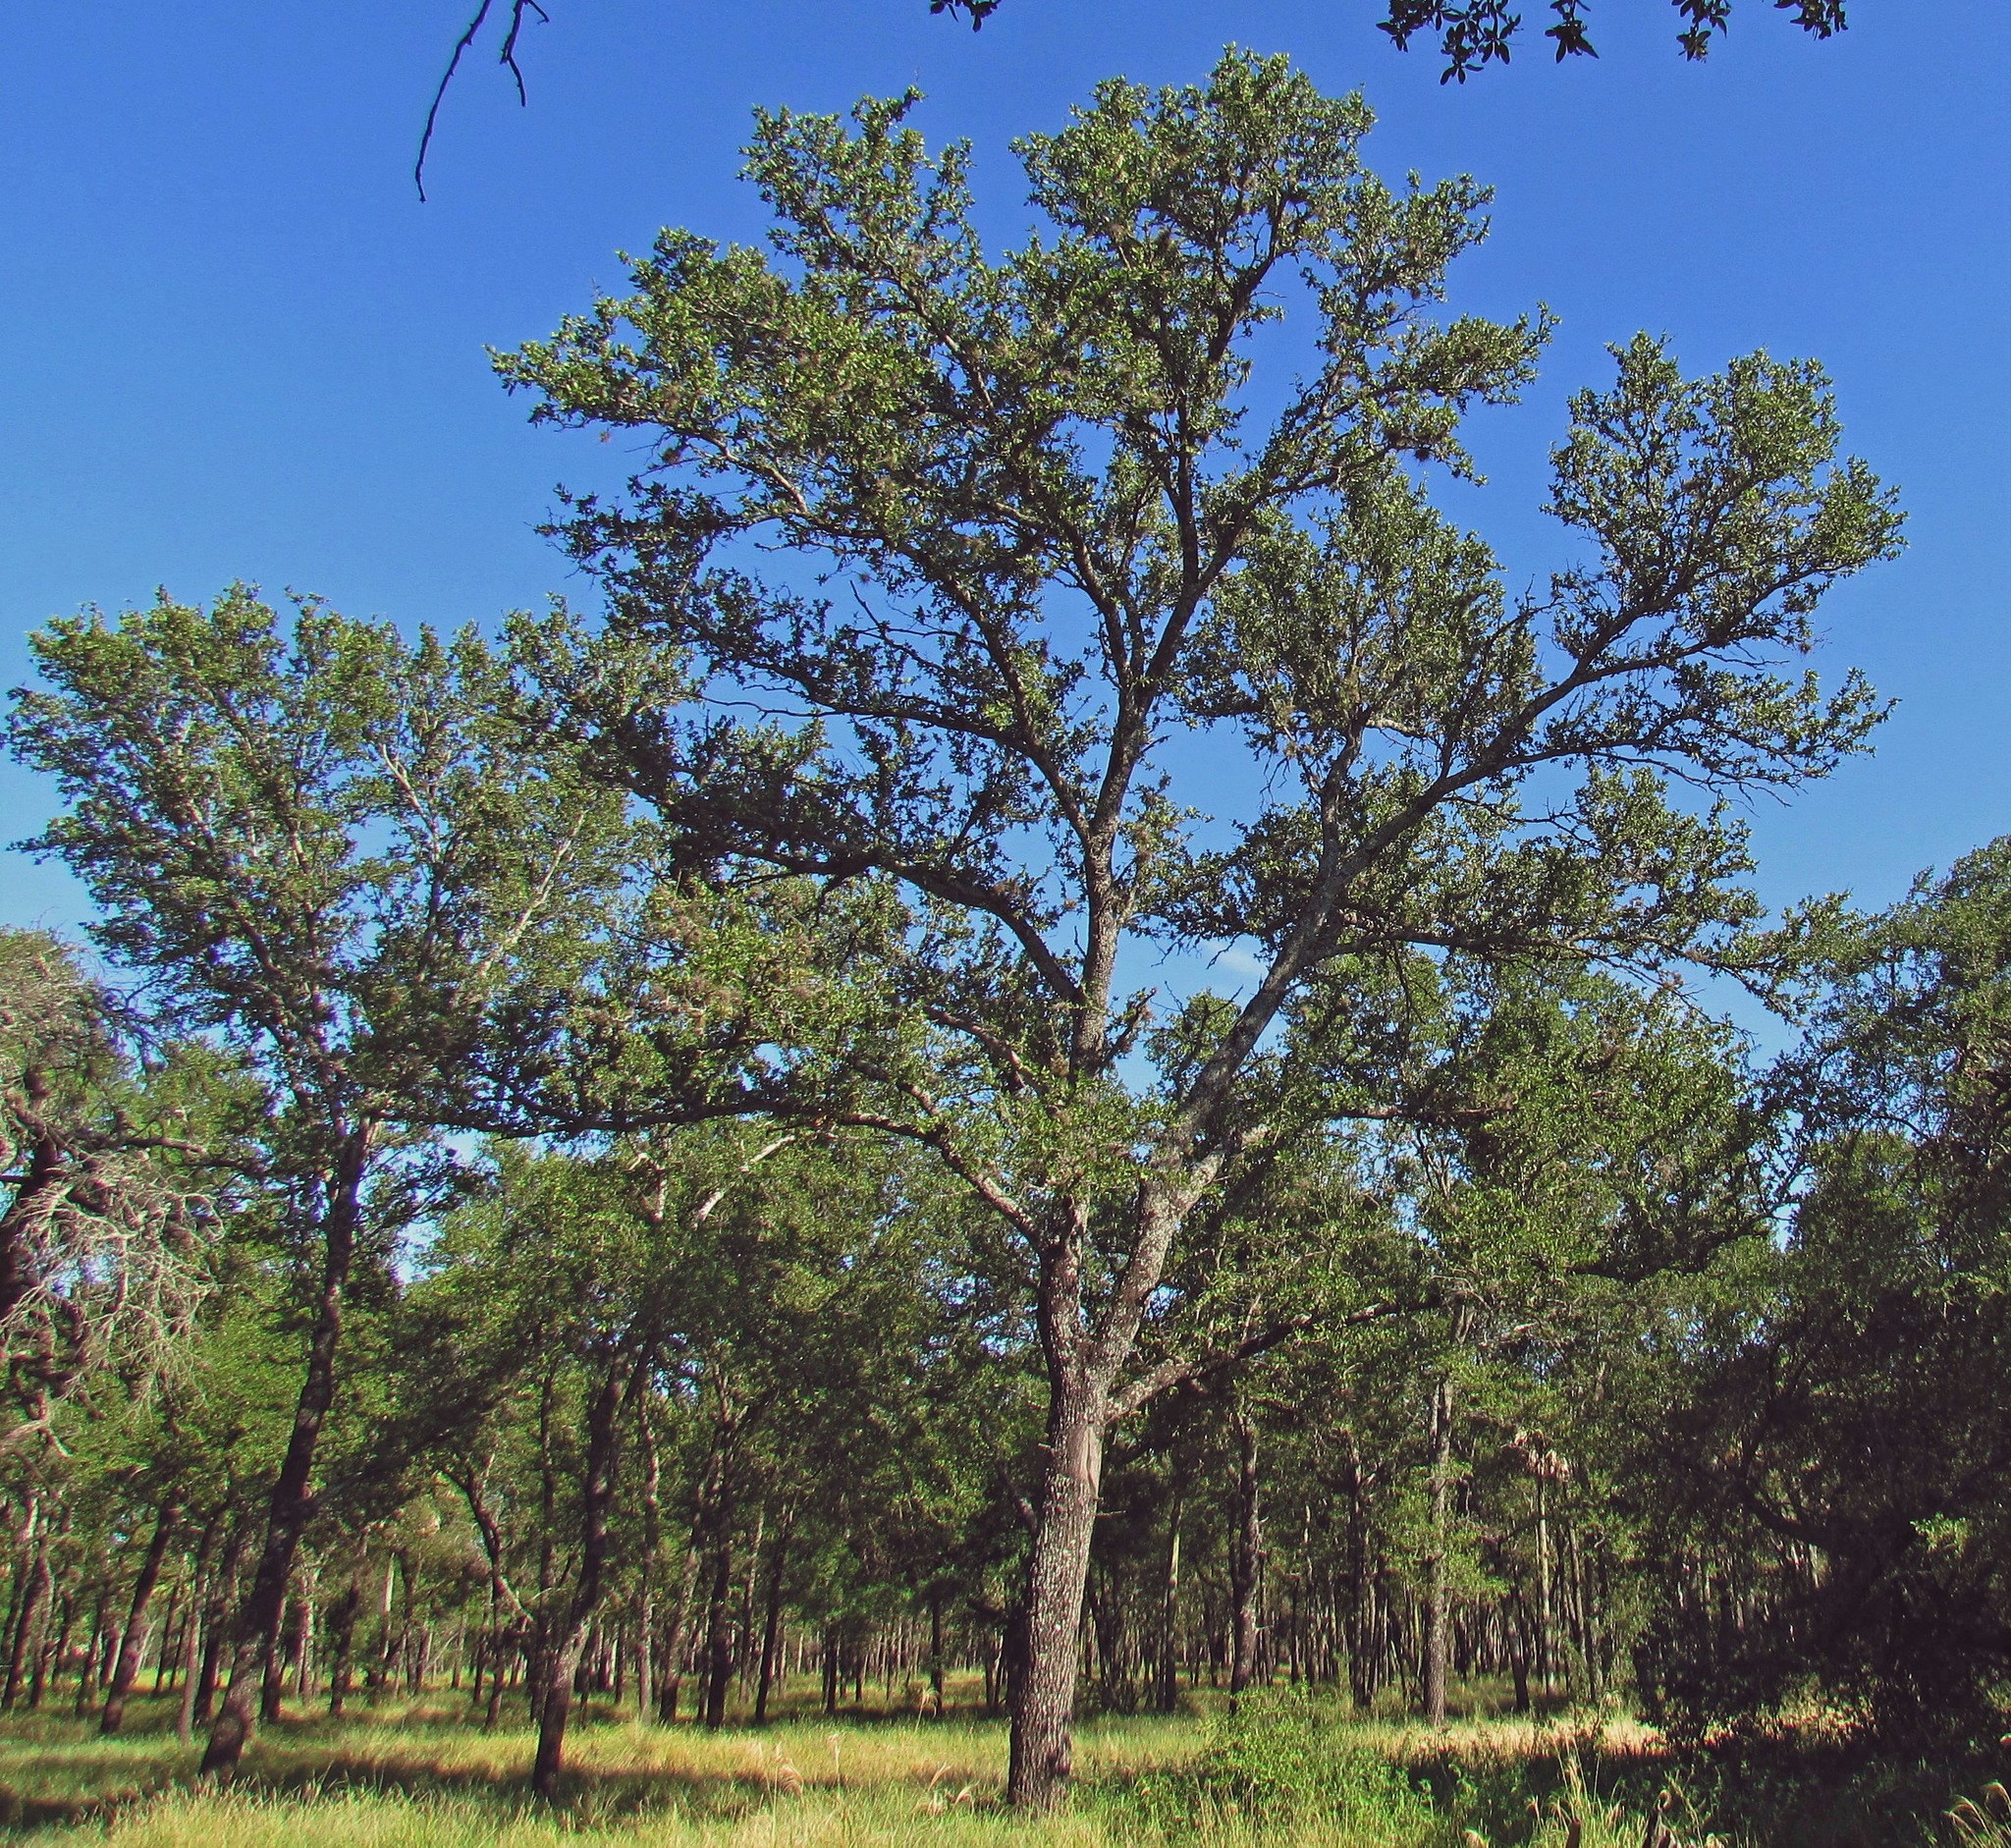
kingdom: Plantae
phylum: Tracheophyta
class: Magnoliopsida
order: Sapindales
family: Anacardiaceae
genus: Schinopsis
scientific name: Schinopsis balansae
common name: Red quebracho
